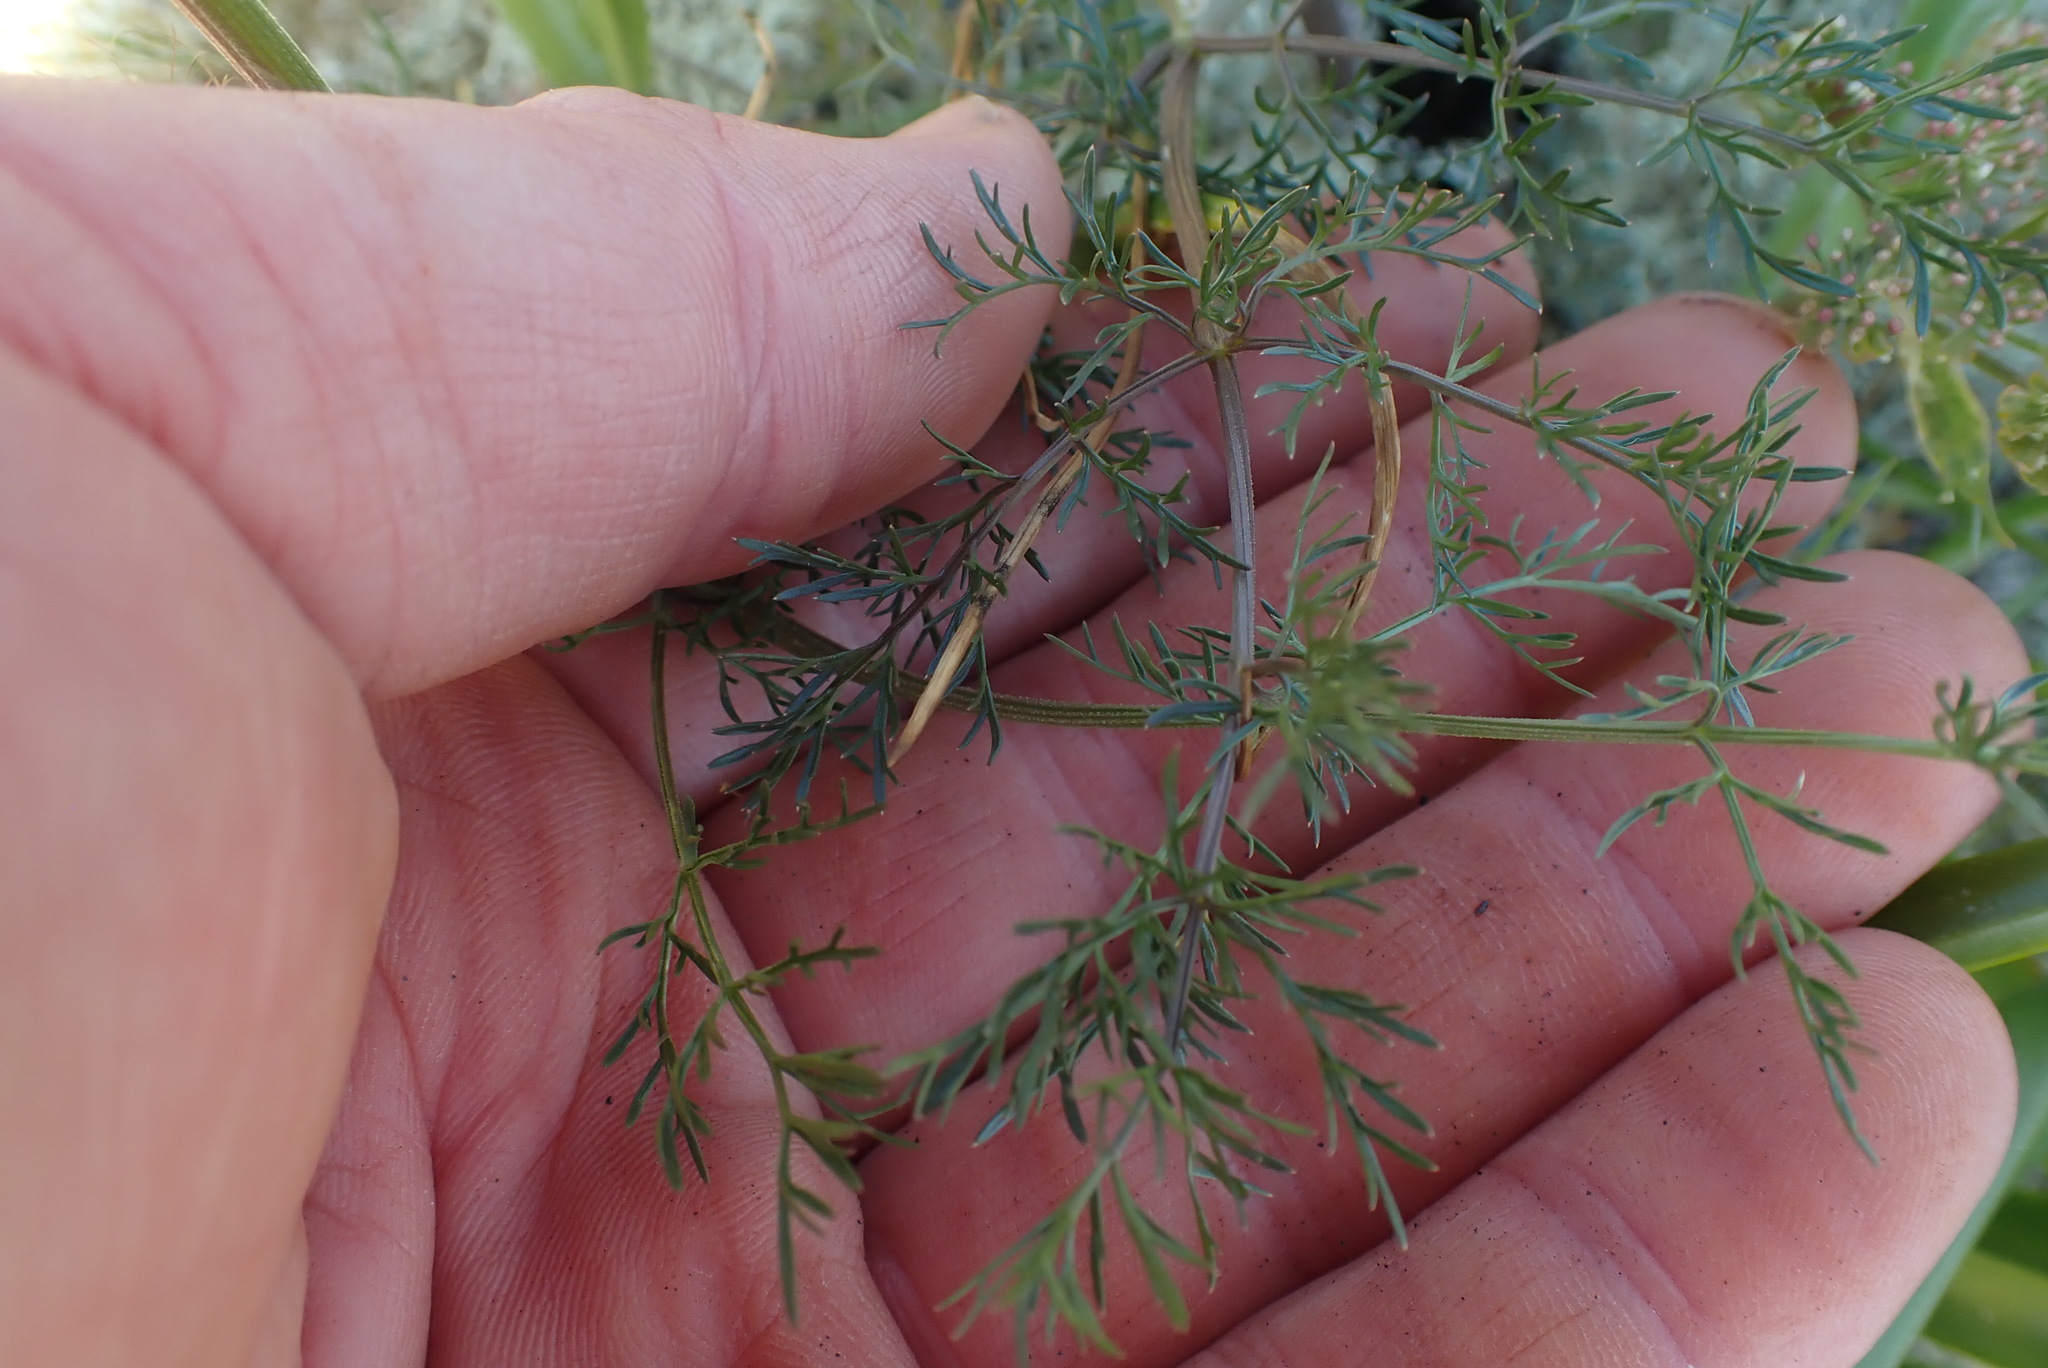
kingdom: Plantae
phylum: Tracheophyta
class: Magnoliopsida
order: Apiales
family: Apiaceae
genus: Lomatium
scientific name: Lomatium utriculatum
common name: Fine-leaf desert-parsley
